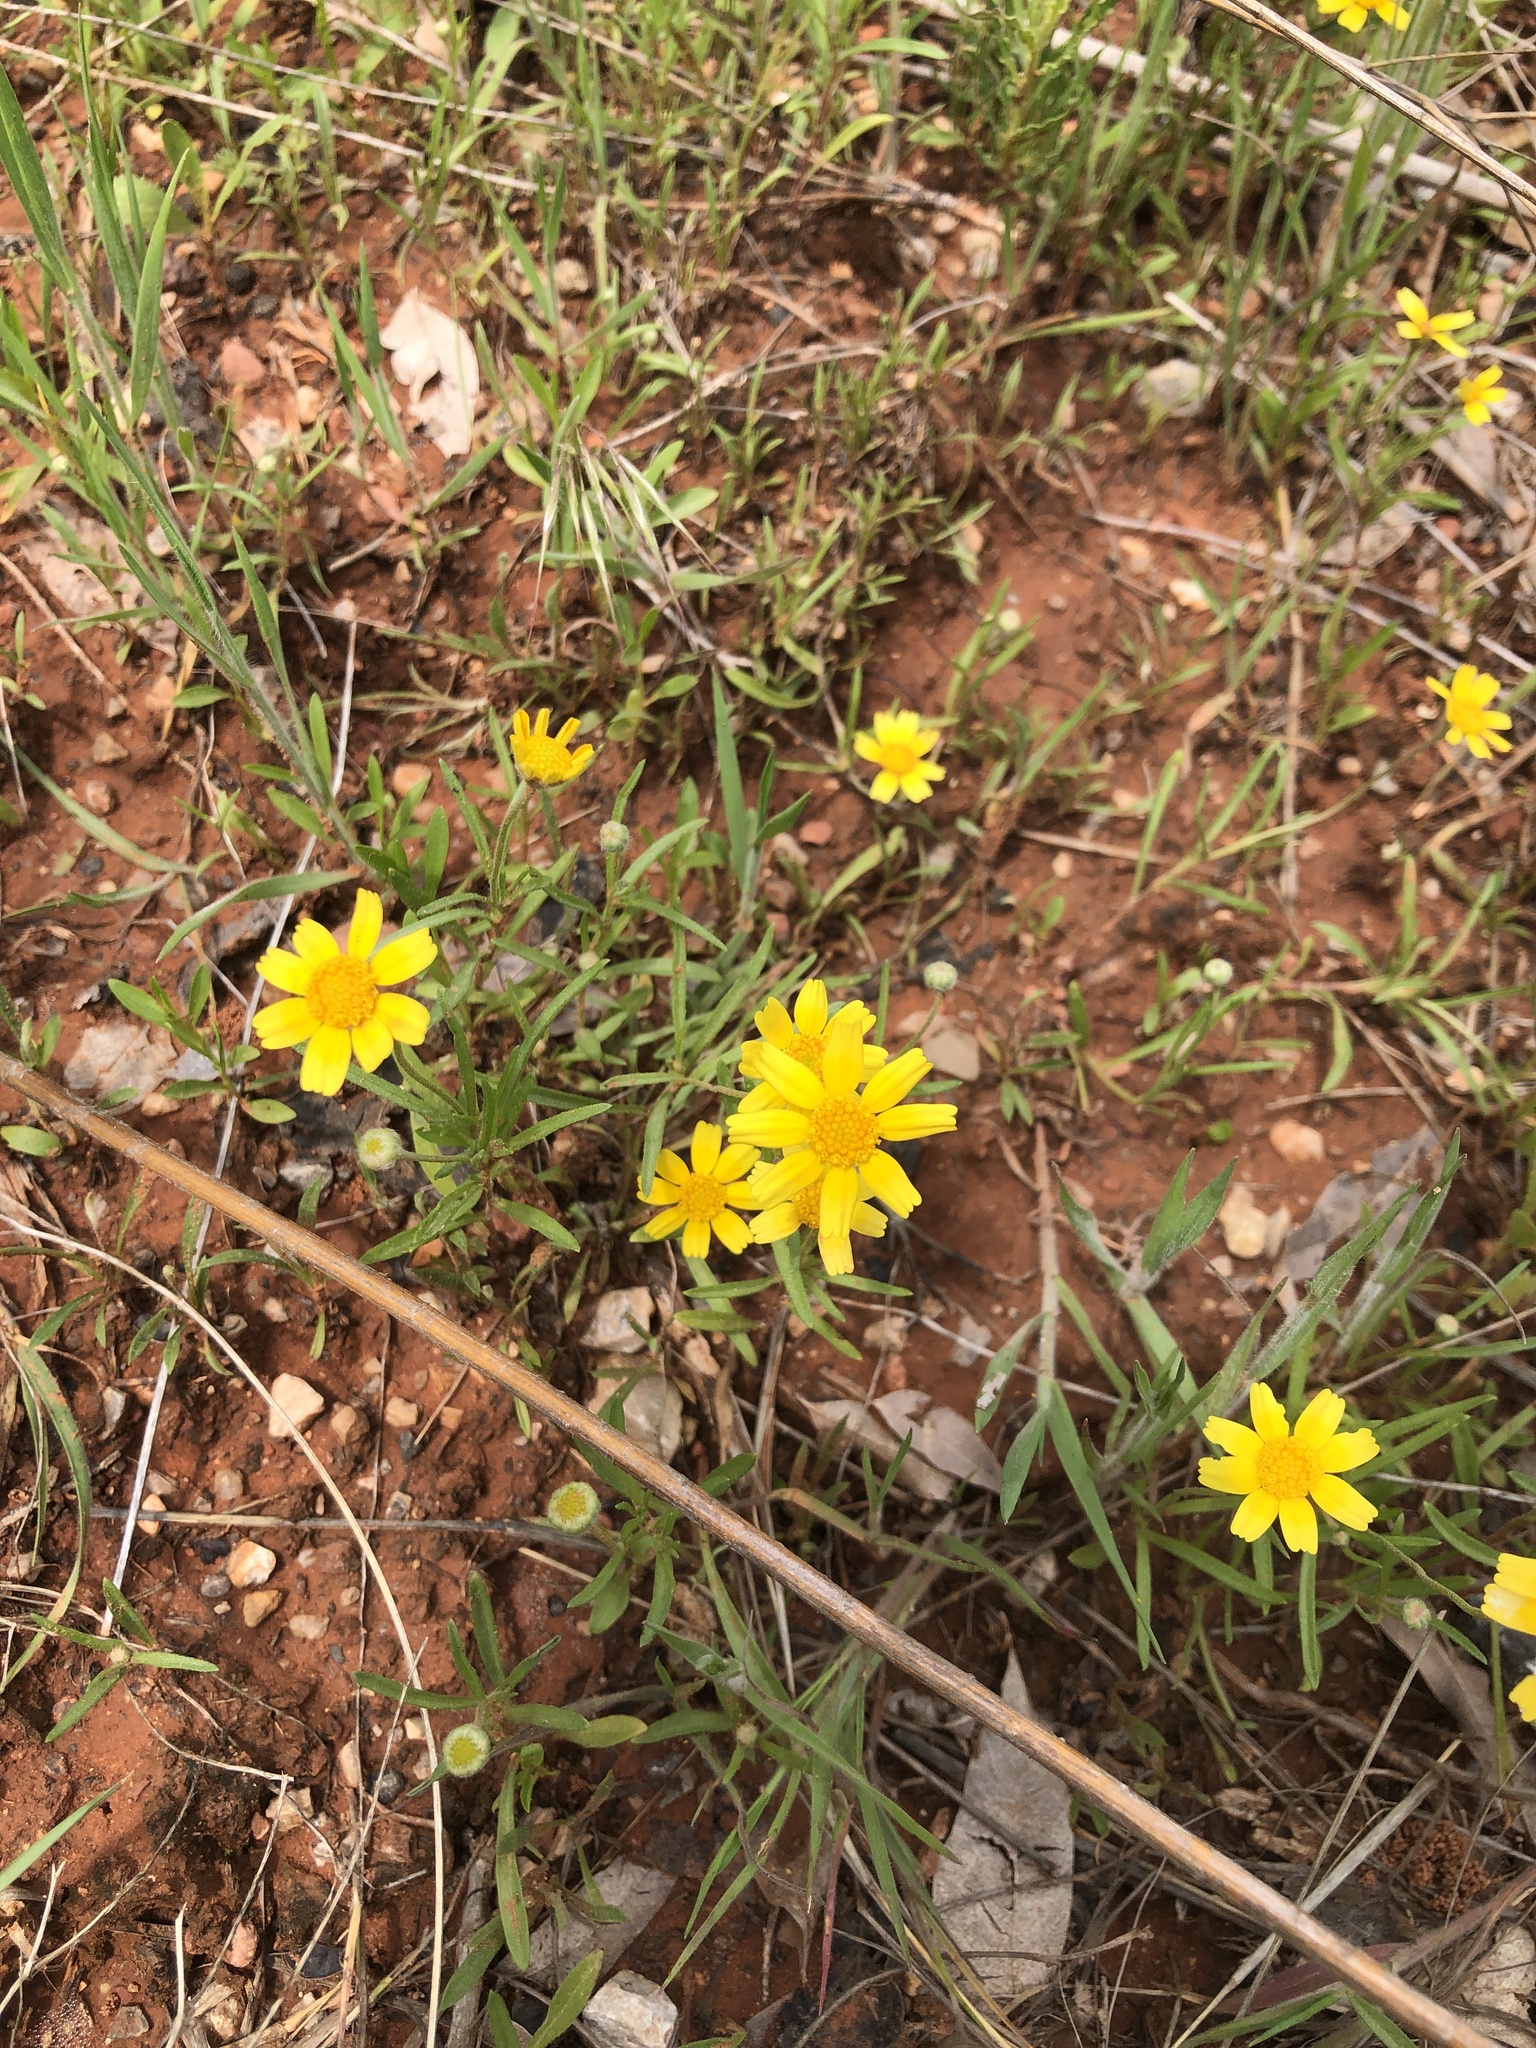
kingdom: Plantae
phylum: Tracheophyta
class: Magnoliopsida
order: Asterales
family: Asteraceae
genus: Tetraneuris
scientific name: Tetraneuris linearifolia
